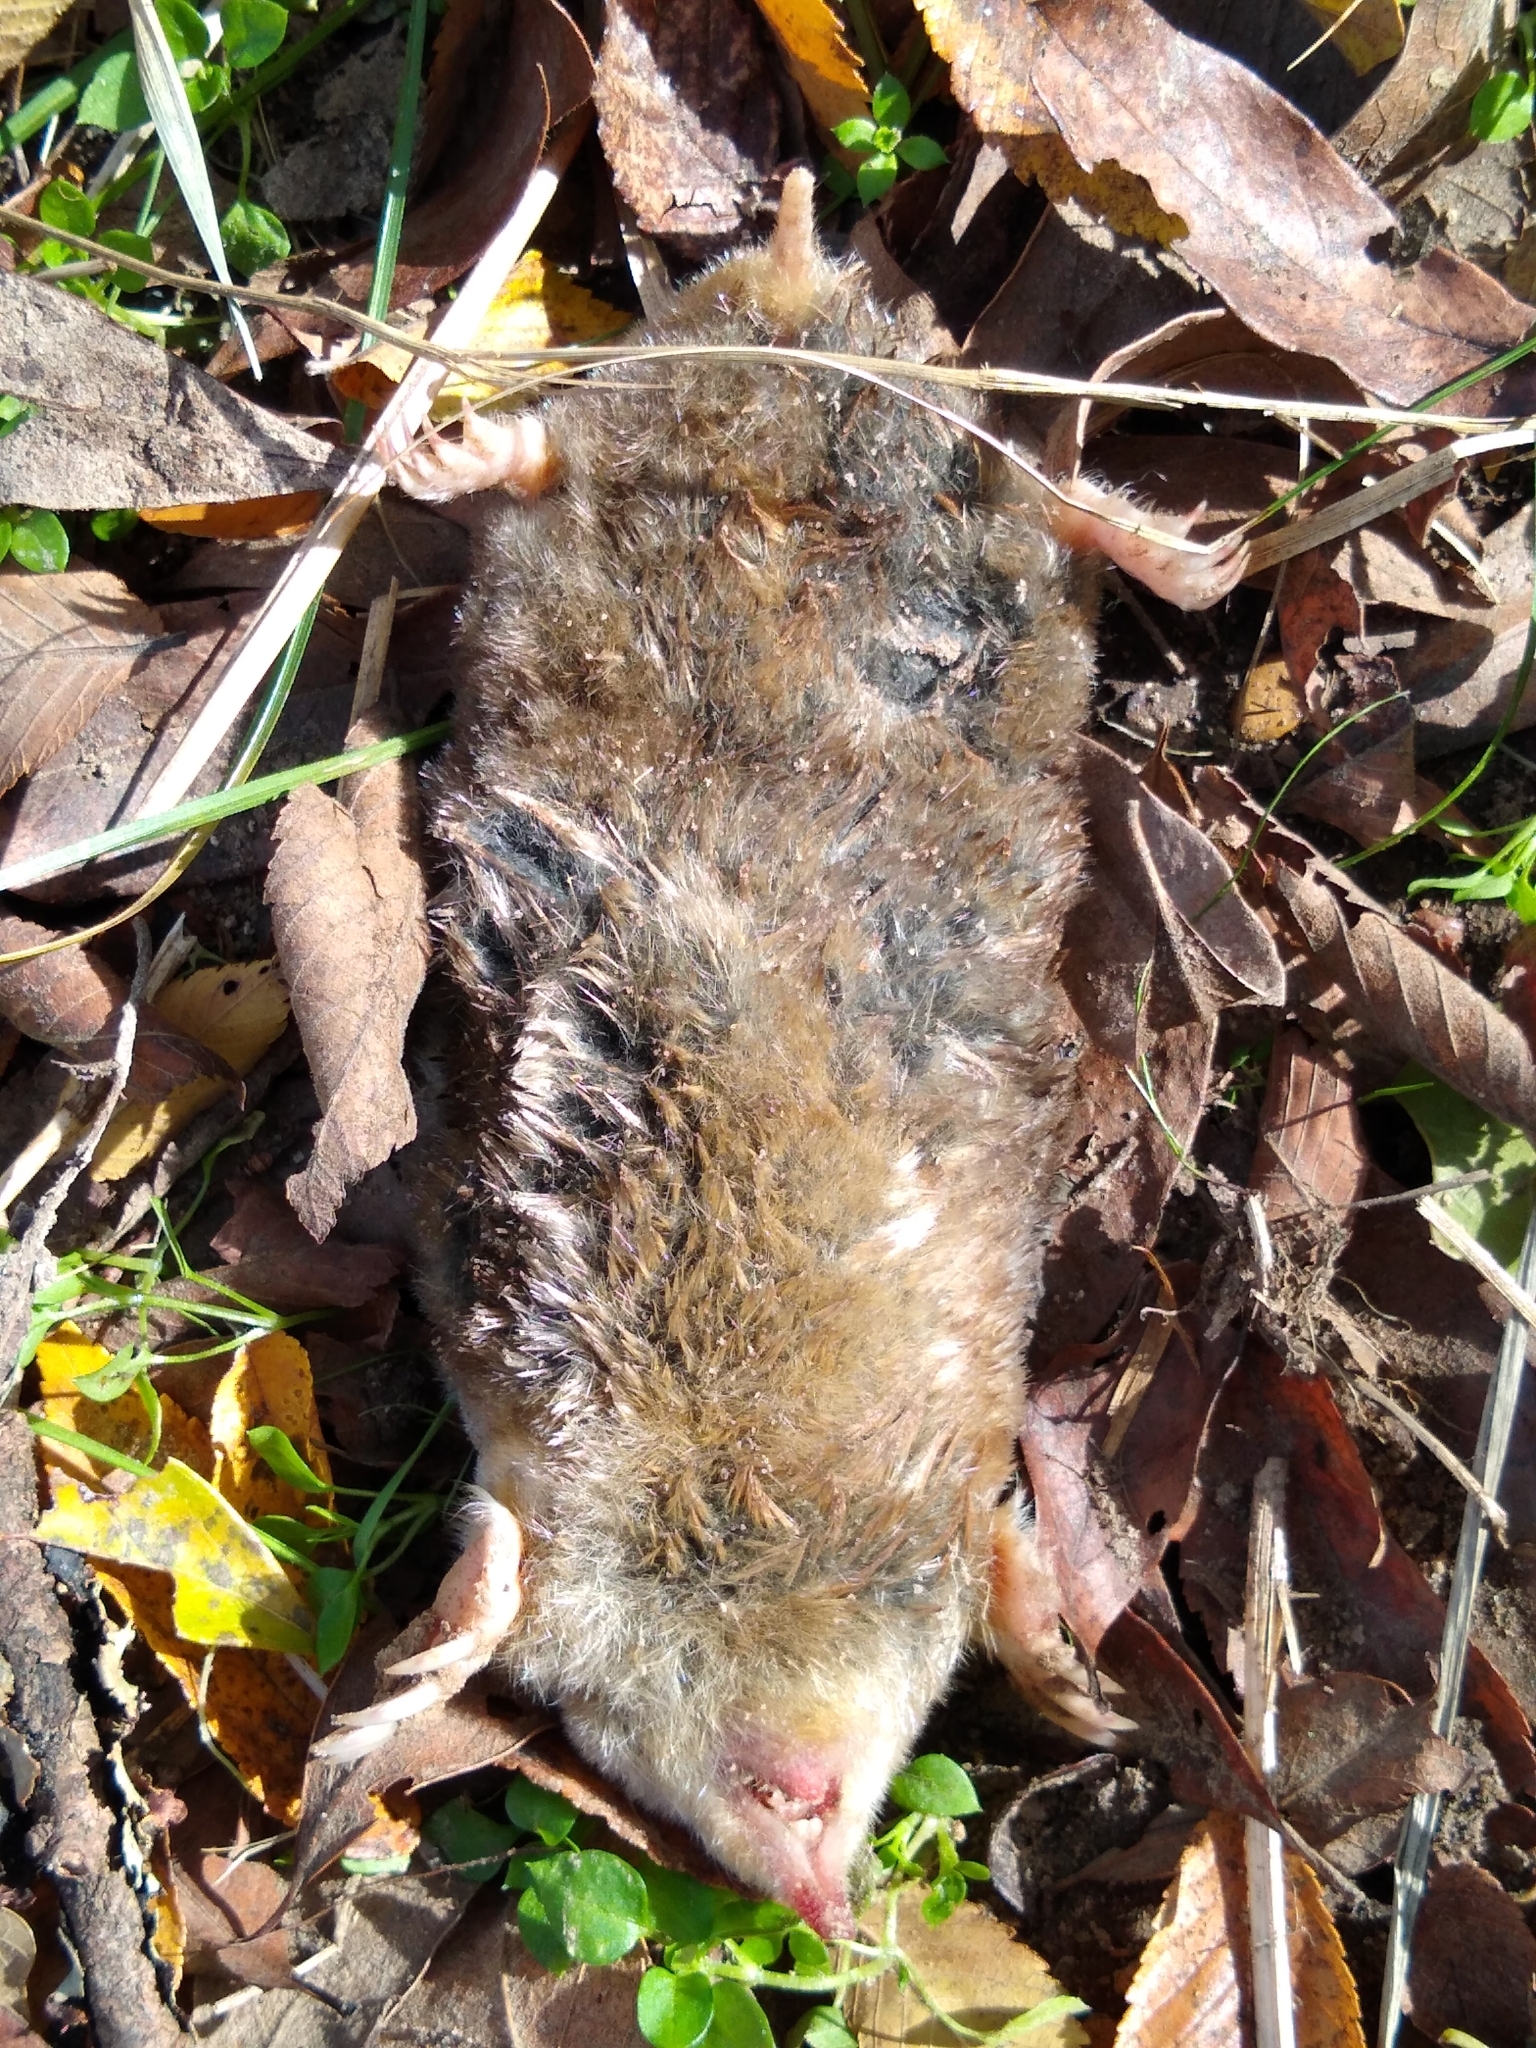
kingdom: Animalia
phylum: Chordata
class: Mammalia
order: Soricomorpha
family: Talpidae
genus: Scalopus
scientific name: Scalopus aquaticus
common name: Eastern mole
